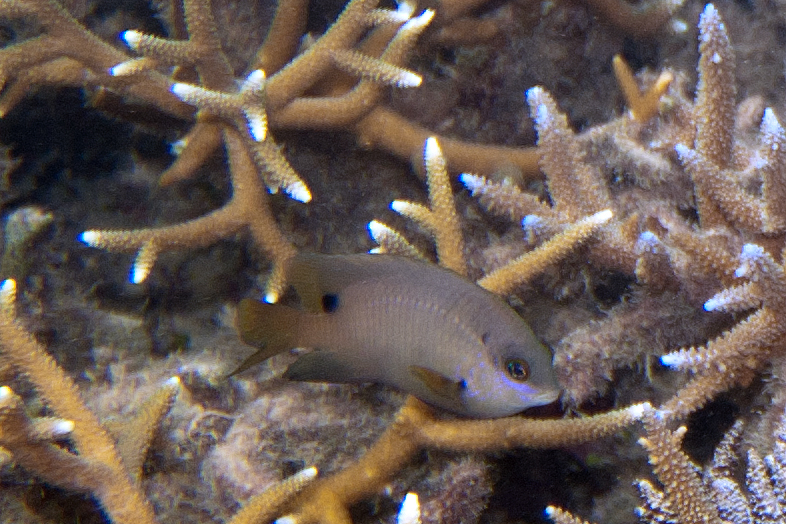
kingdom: Animalia
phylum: Chordata
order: Perciformes
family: Pomacentridae
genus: Stegastes
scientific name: Stegastes nigricans
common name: Dusky gregory
